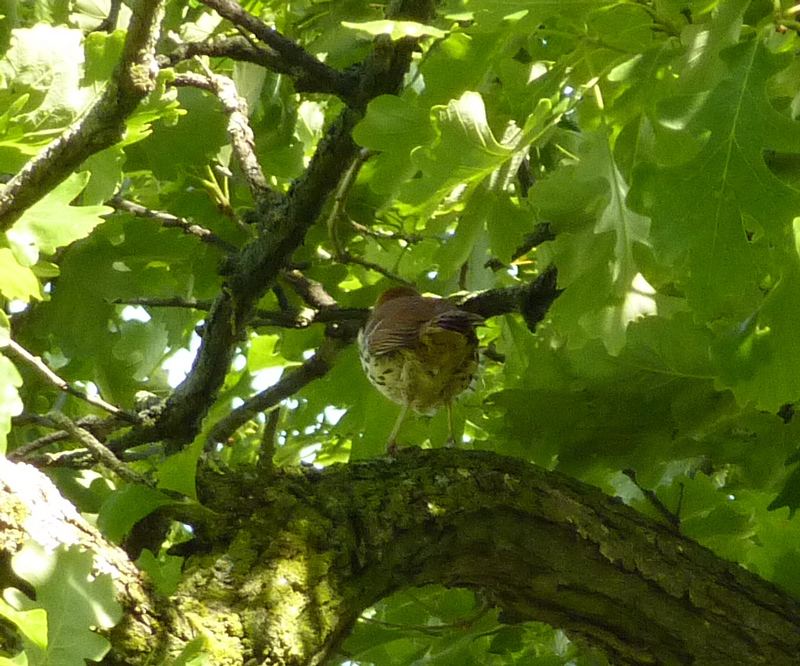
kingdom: Animalia
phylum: Chordata
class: Aves
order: Passeriformes
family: Mimidae
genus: Toxostoma
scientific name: Toxostoma rufum
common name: Brown thrasher
